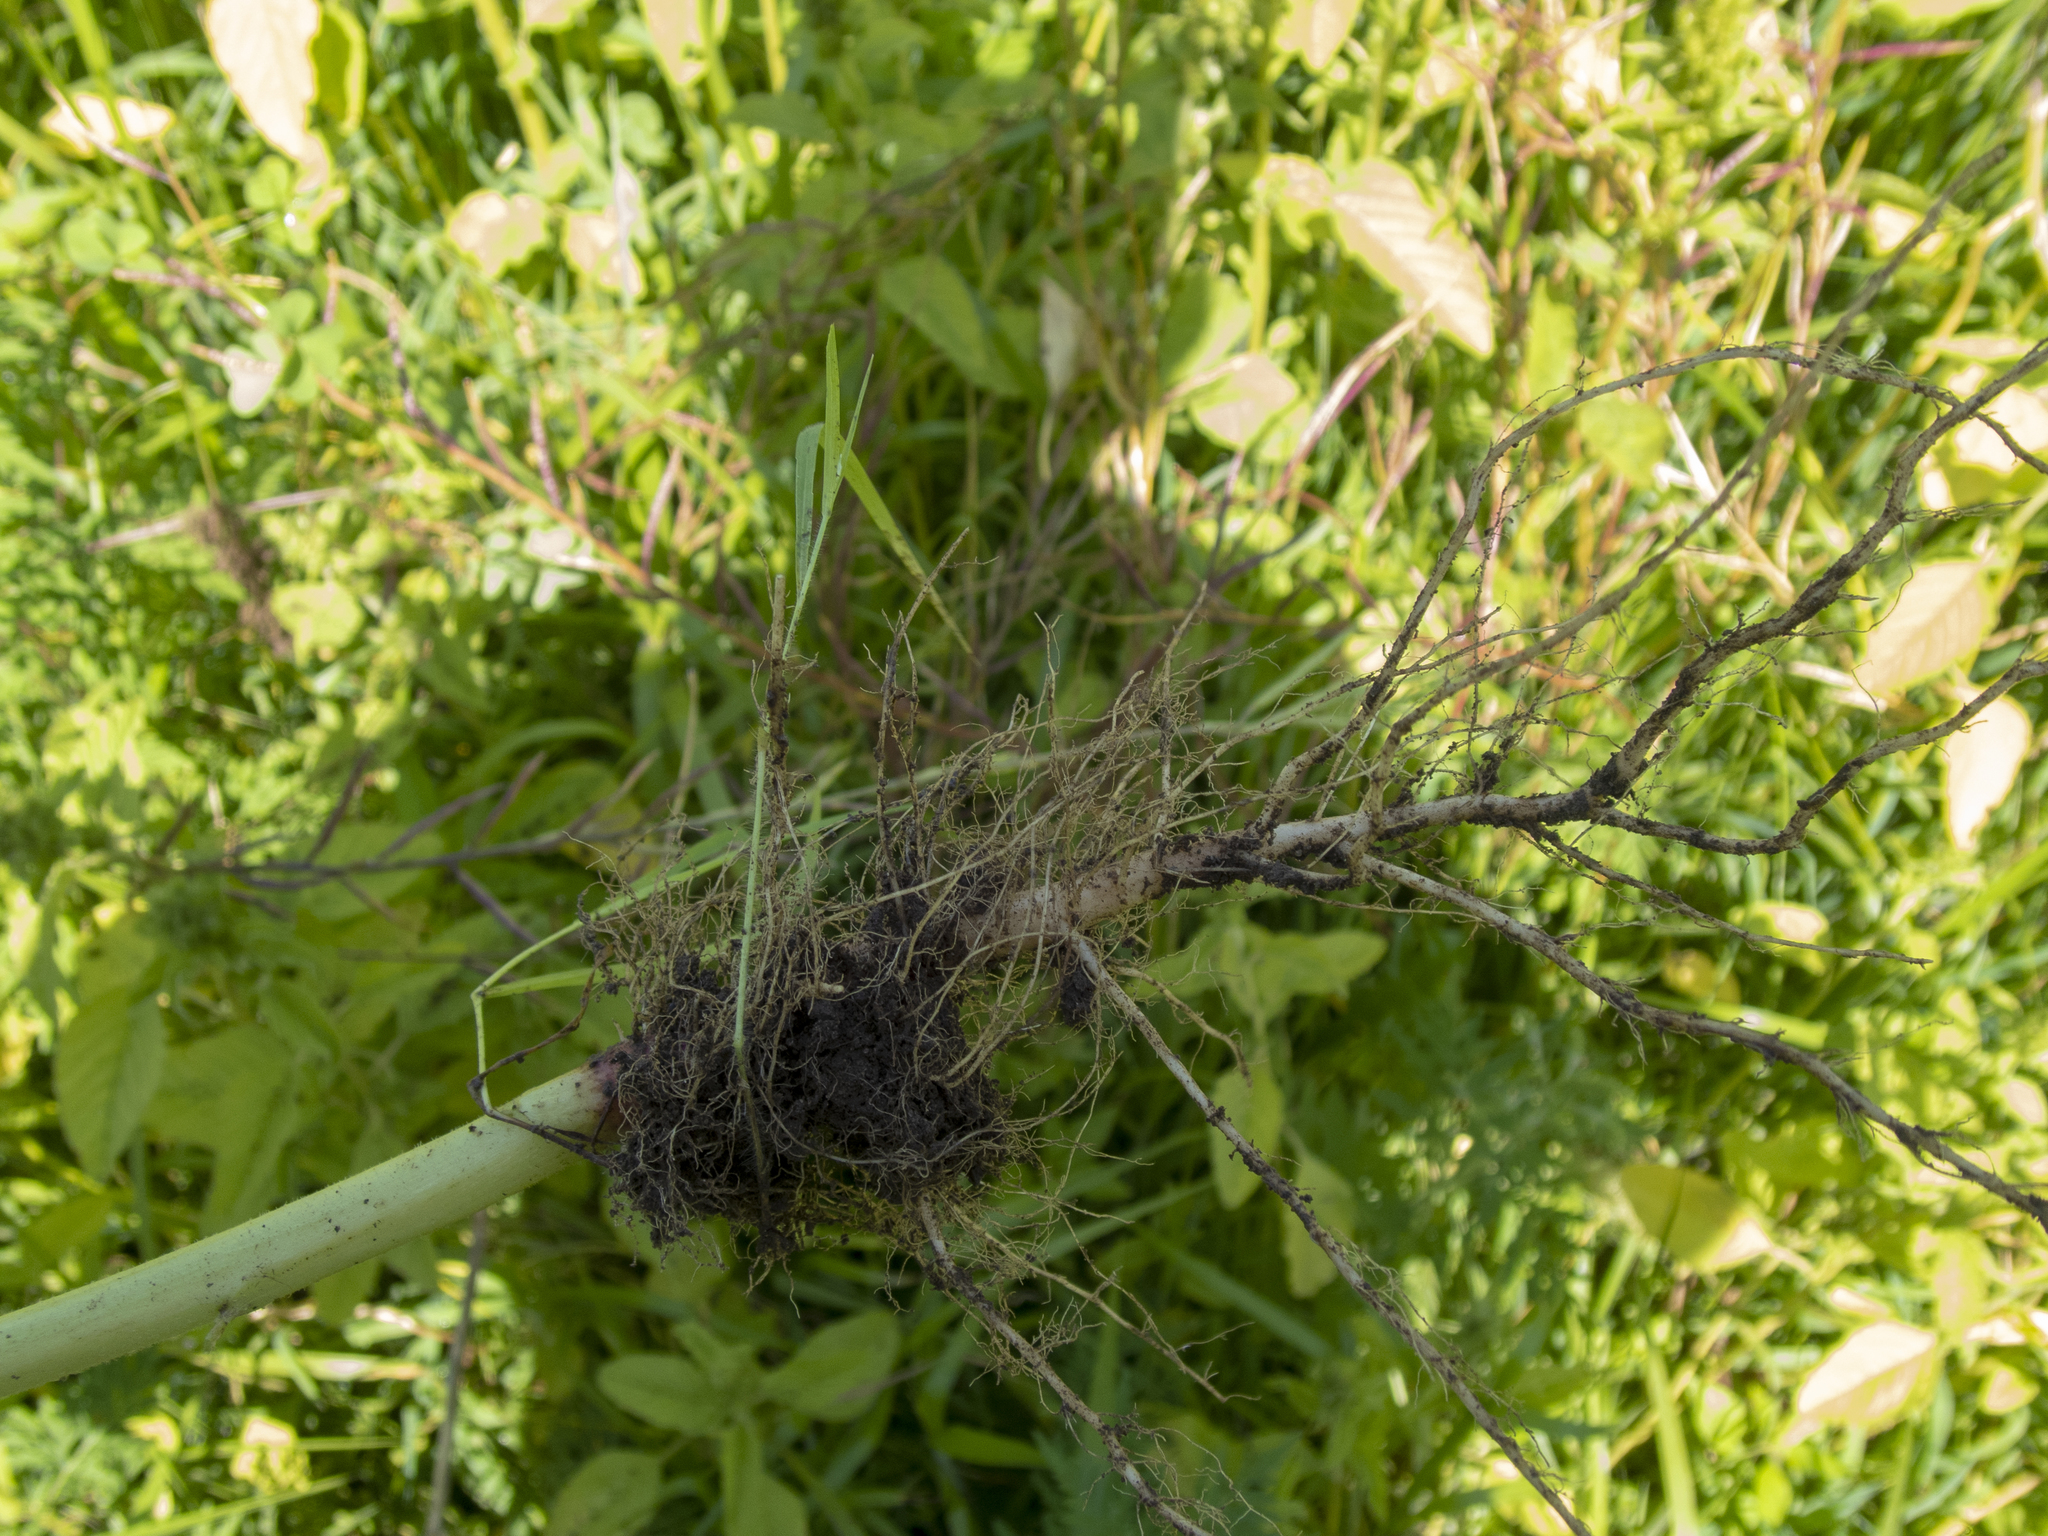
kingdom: Plantae
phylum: Tracheophyta
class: Magnoliopsida
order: Caryophyllales
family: Amaranthaceae
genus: Amaranthus
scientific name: Amaranthus retroflexus
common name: Redroot amaranth
